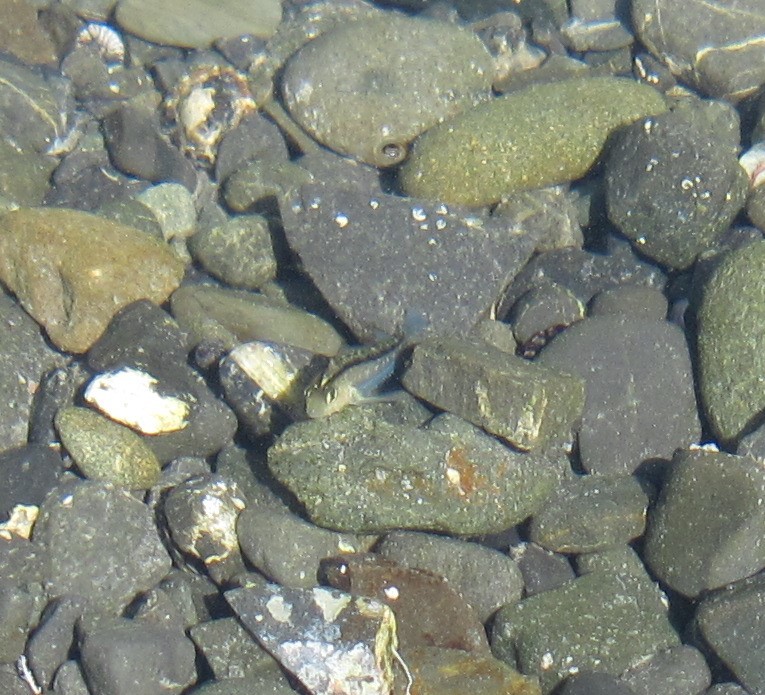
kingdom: Animalia
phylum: Chordata
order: Perciformes
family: Tripterygiidae
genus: Forsterygion
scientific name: Forsterygion lapillum
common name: Common triplefin
